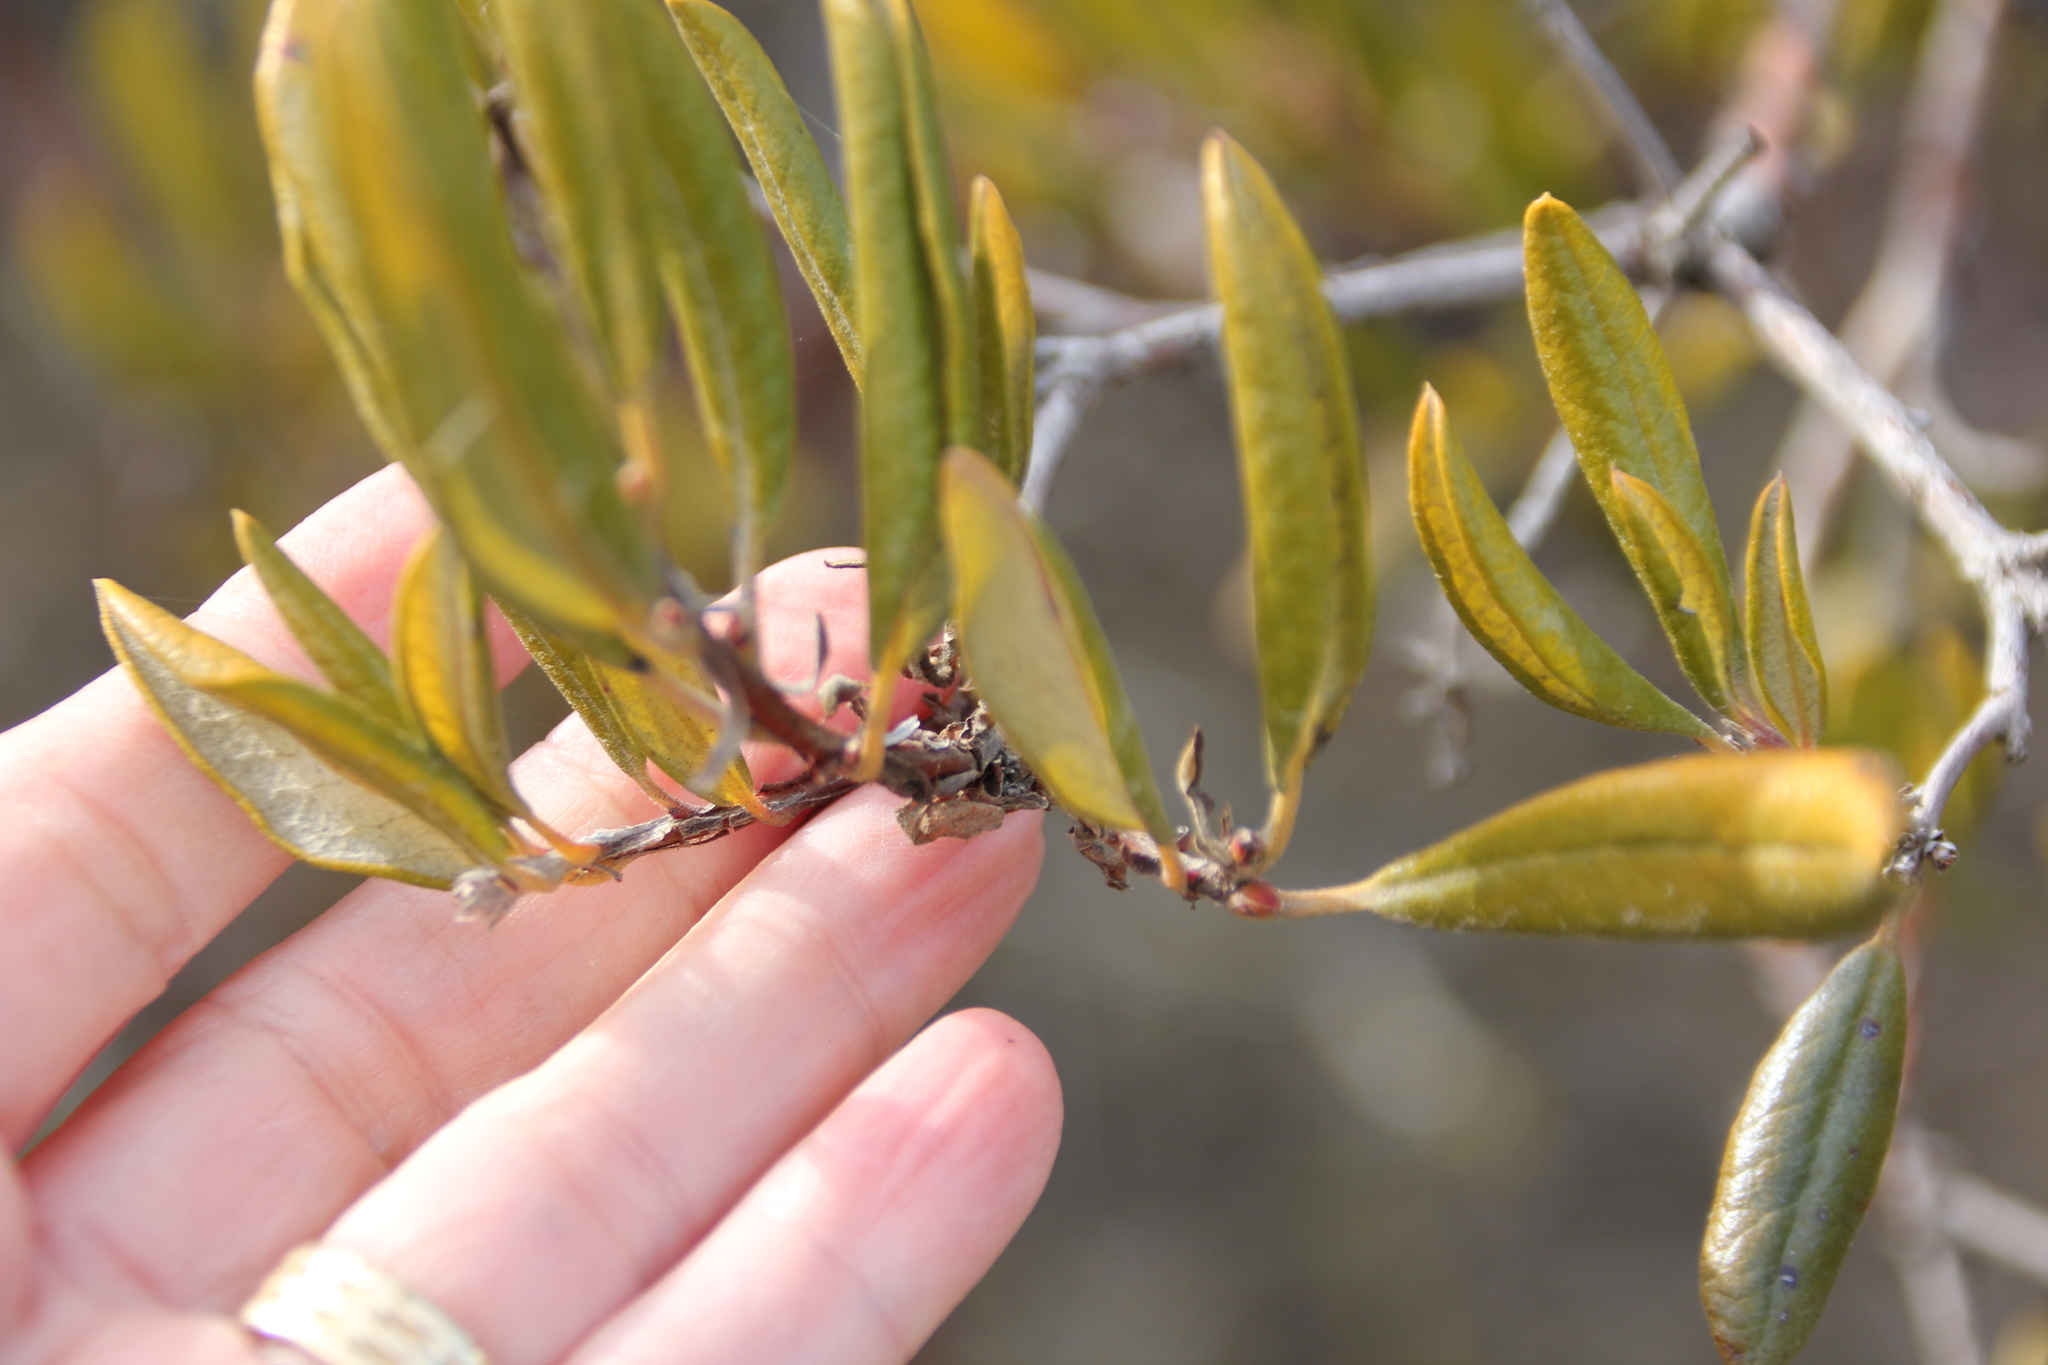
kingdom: Plantae
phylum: Tracheophyta
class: Magnoliopsida
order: Ericales
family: Ericaceae
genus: Arctostaphylos
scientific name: Arctostaphylos bicolor
